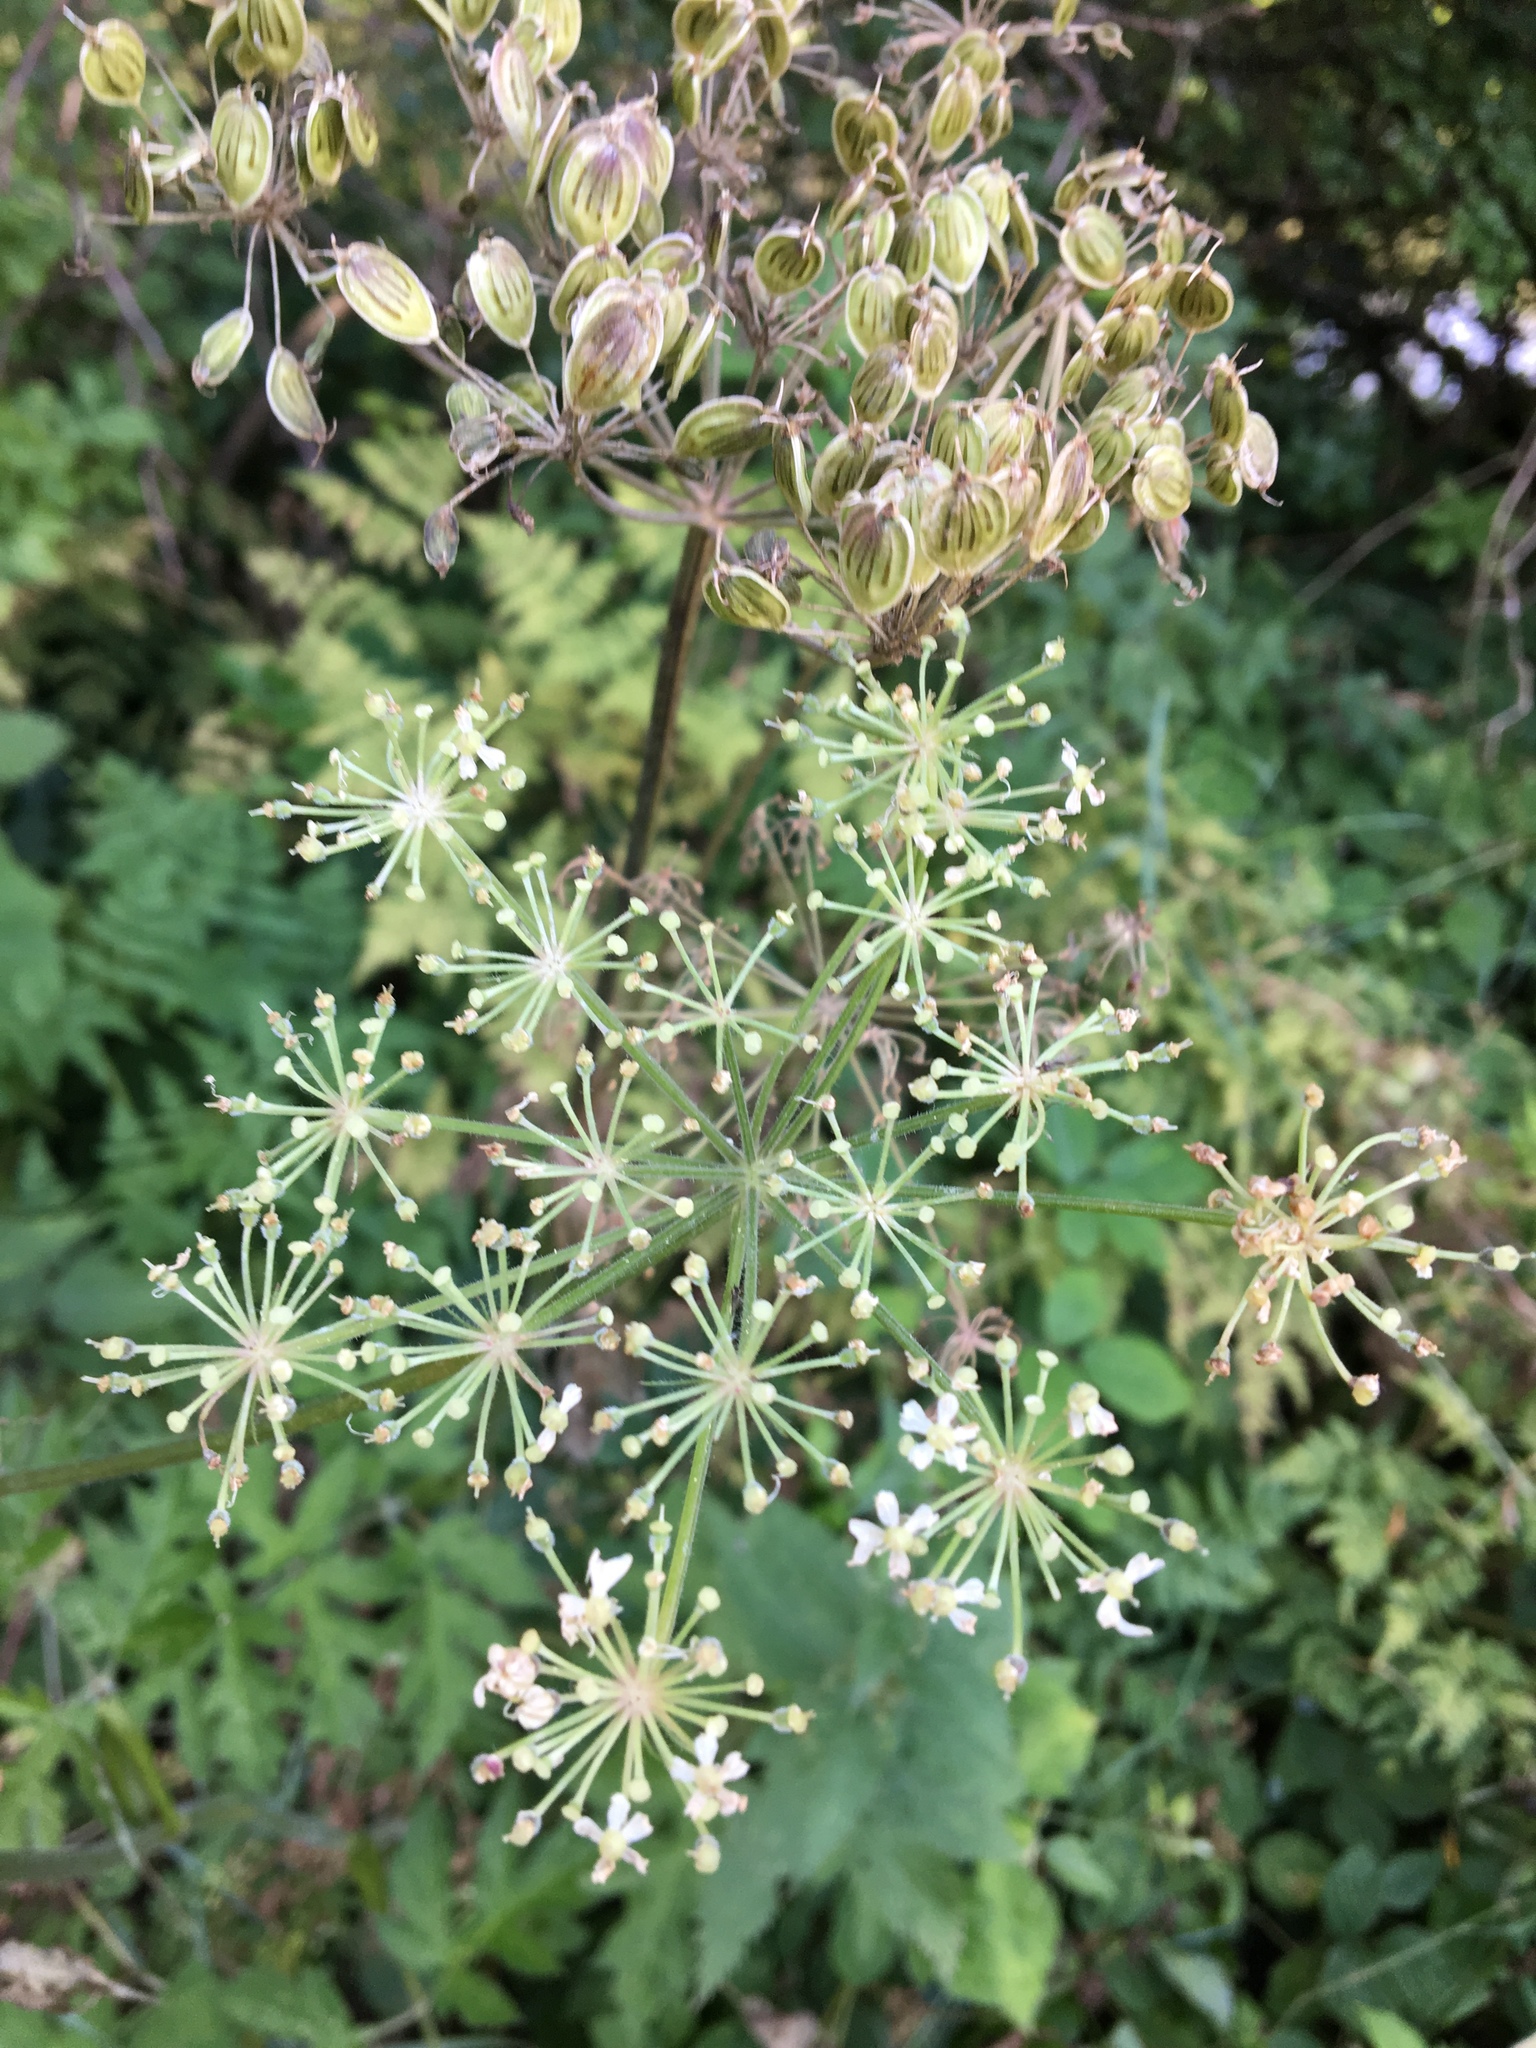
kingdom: Plantae
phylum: Tracheophyta
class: Magnoliopsida
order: Apiales
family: Apiaceae
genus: Heracleum
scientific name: Heracleum sphondylium
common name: Hogweed
